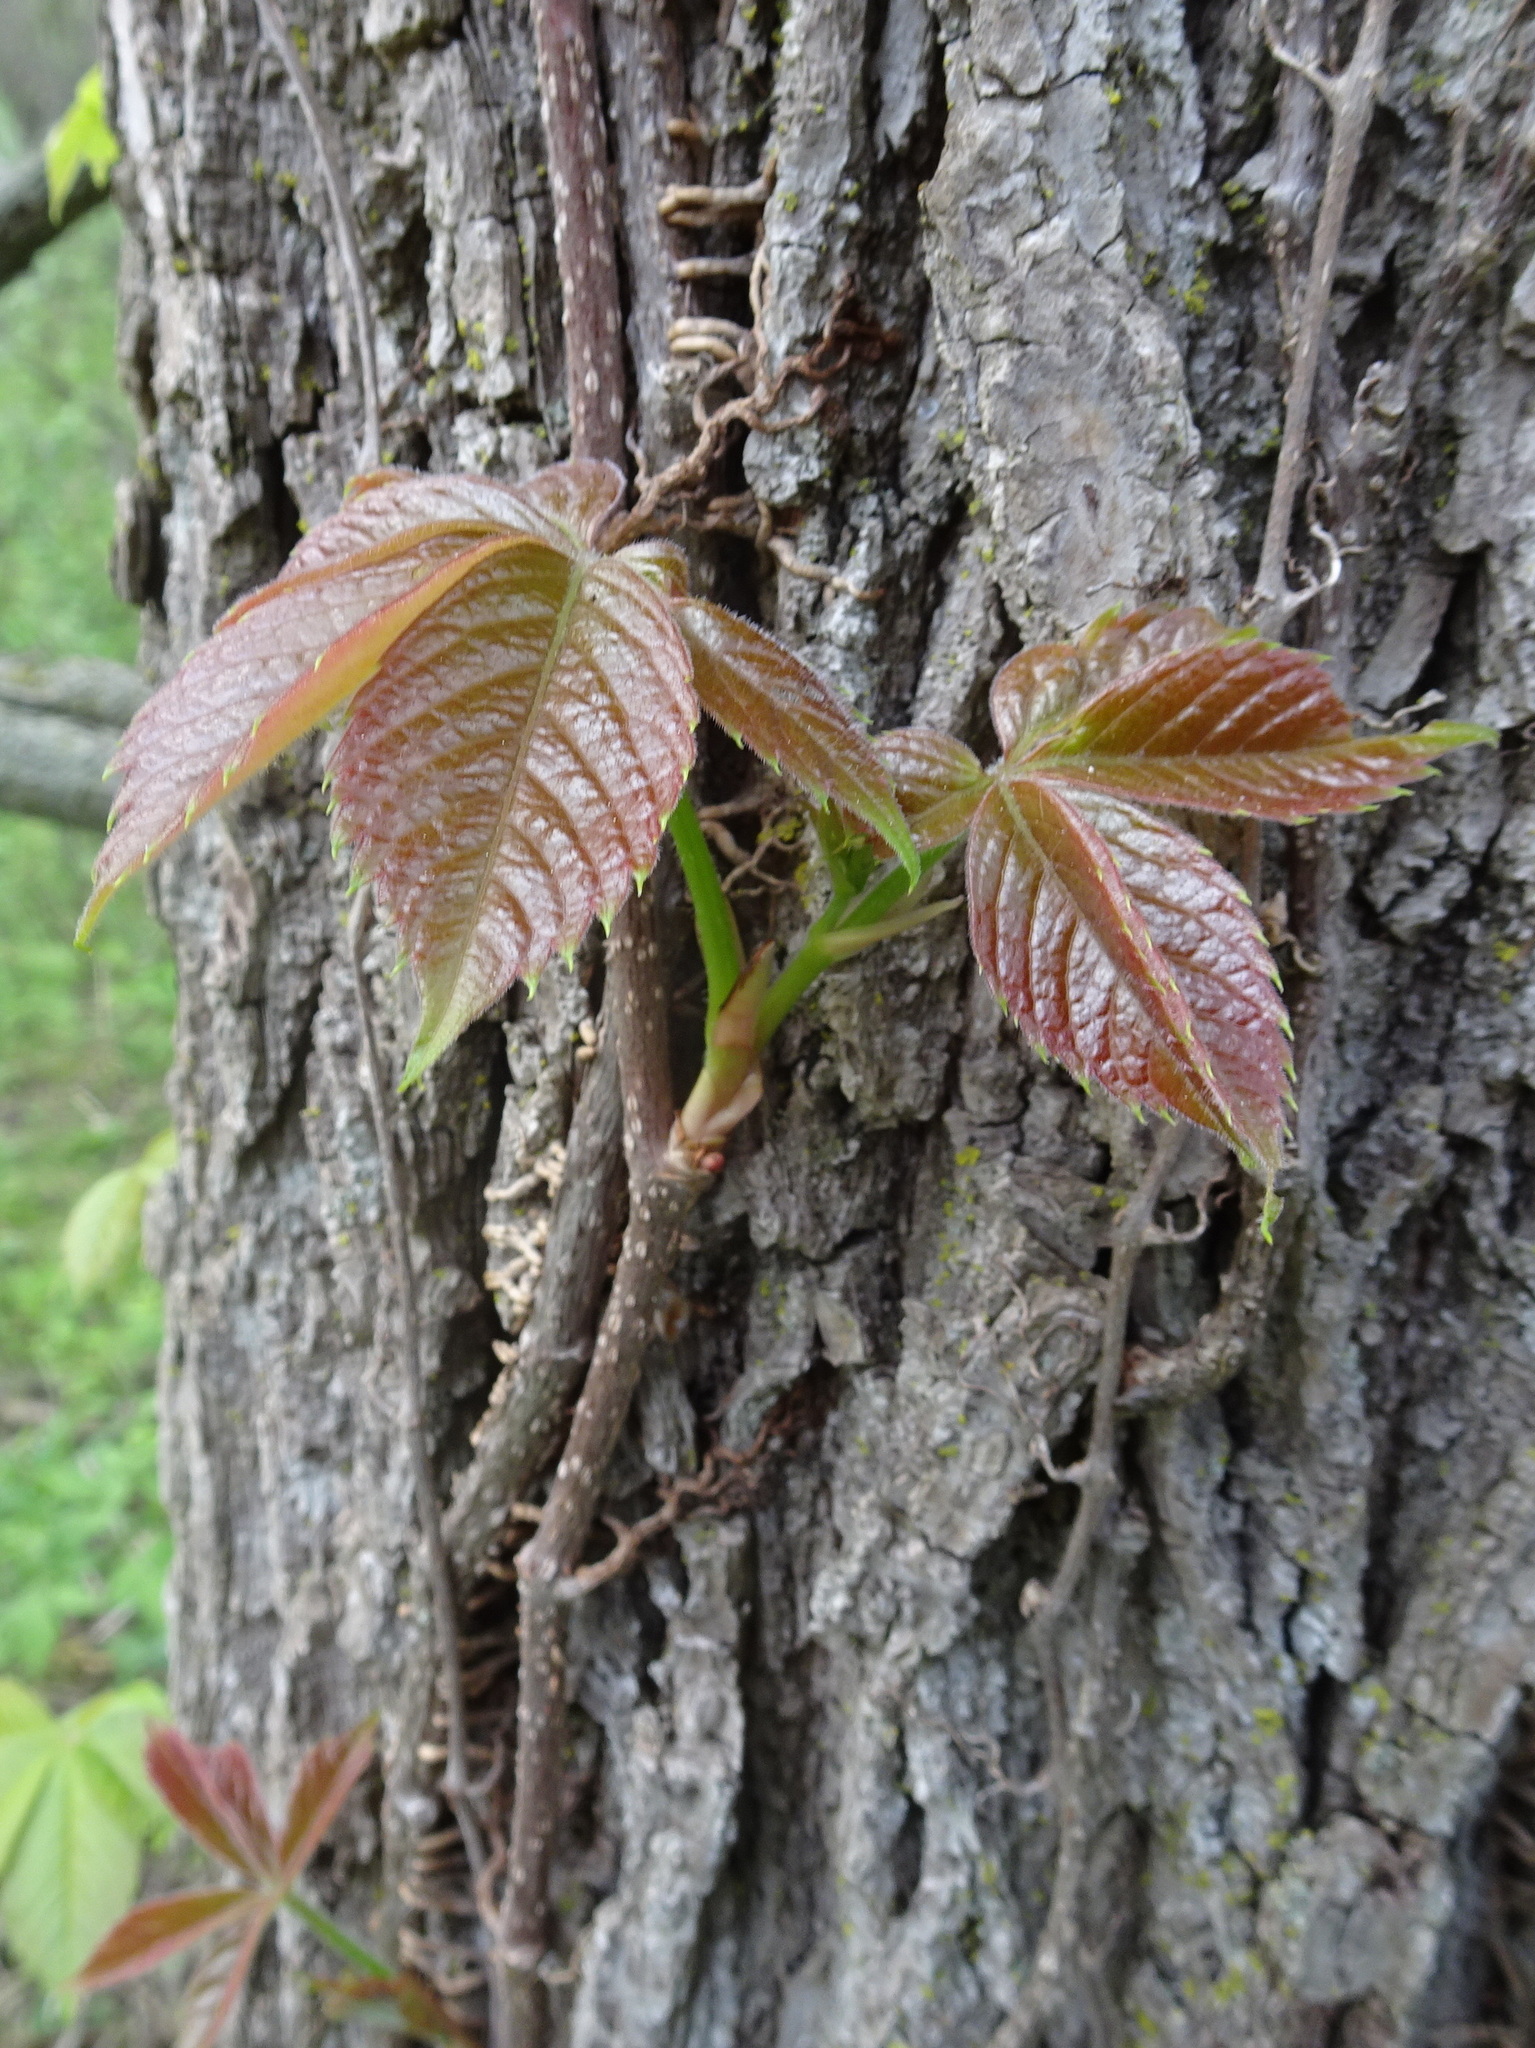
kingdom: Plantae
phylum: Tracheophyta
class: Magnoliopsida
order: Vitales
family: Vitaceae
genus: Parthenocissus
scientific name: Parthenocissus quinquefolia
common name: Virginia-creeper
